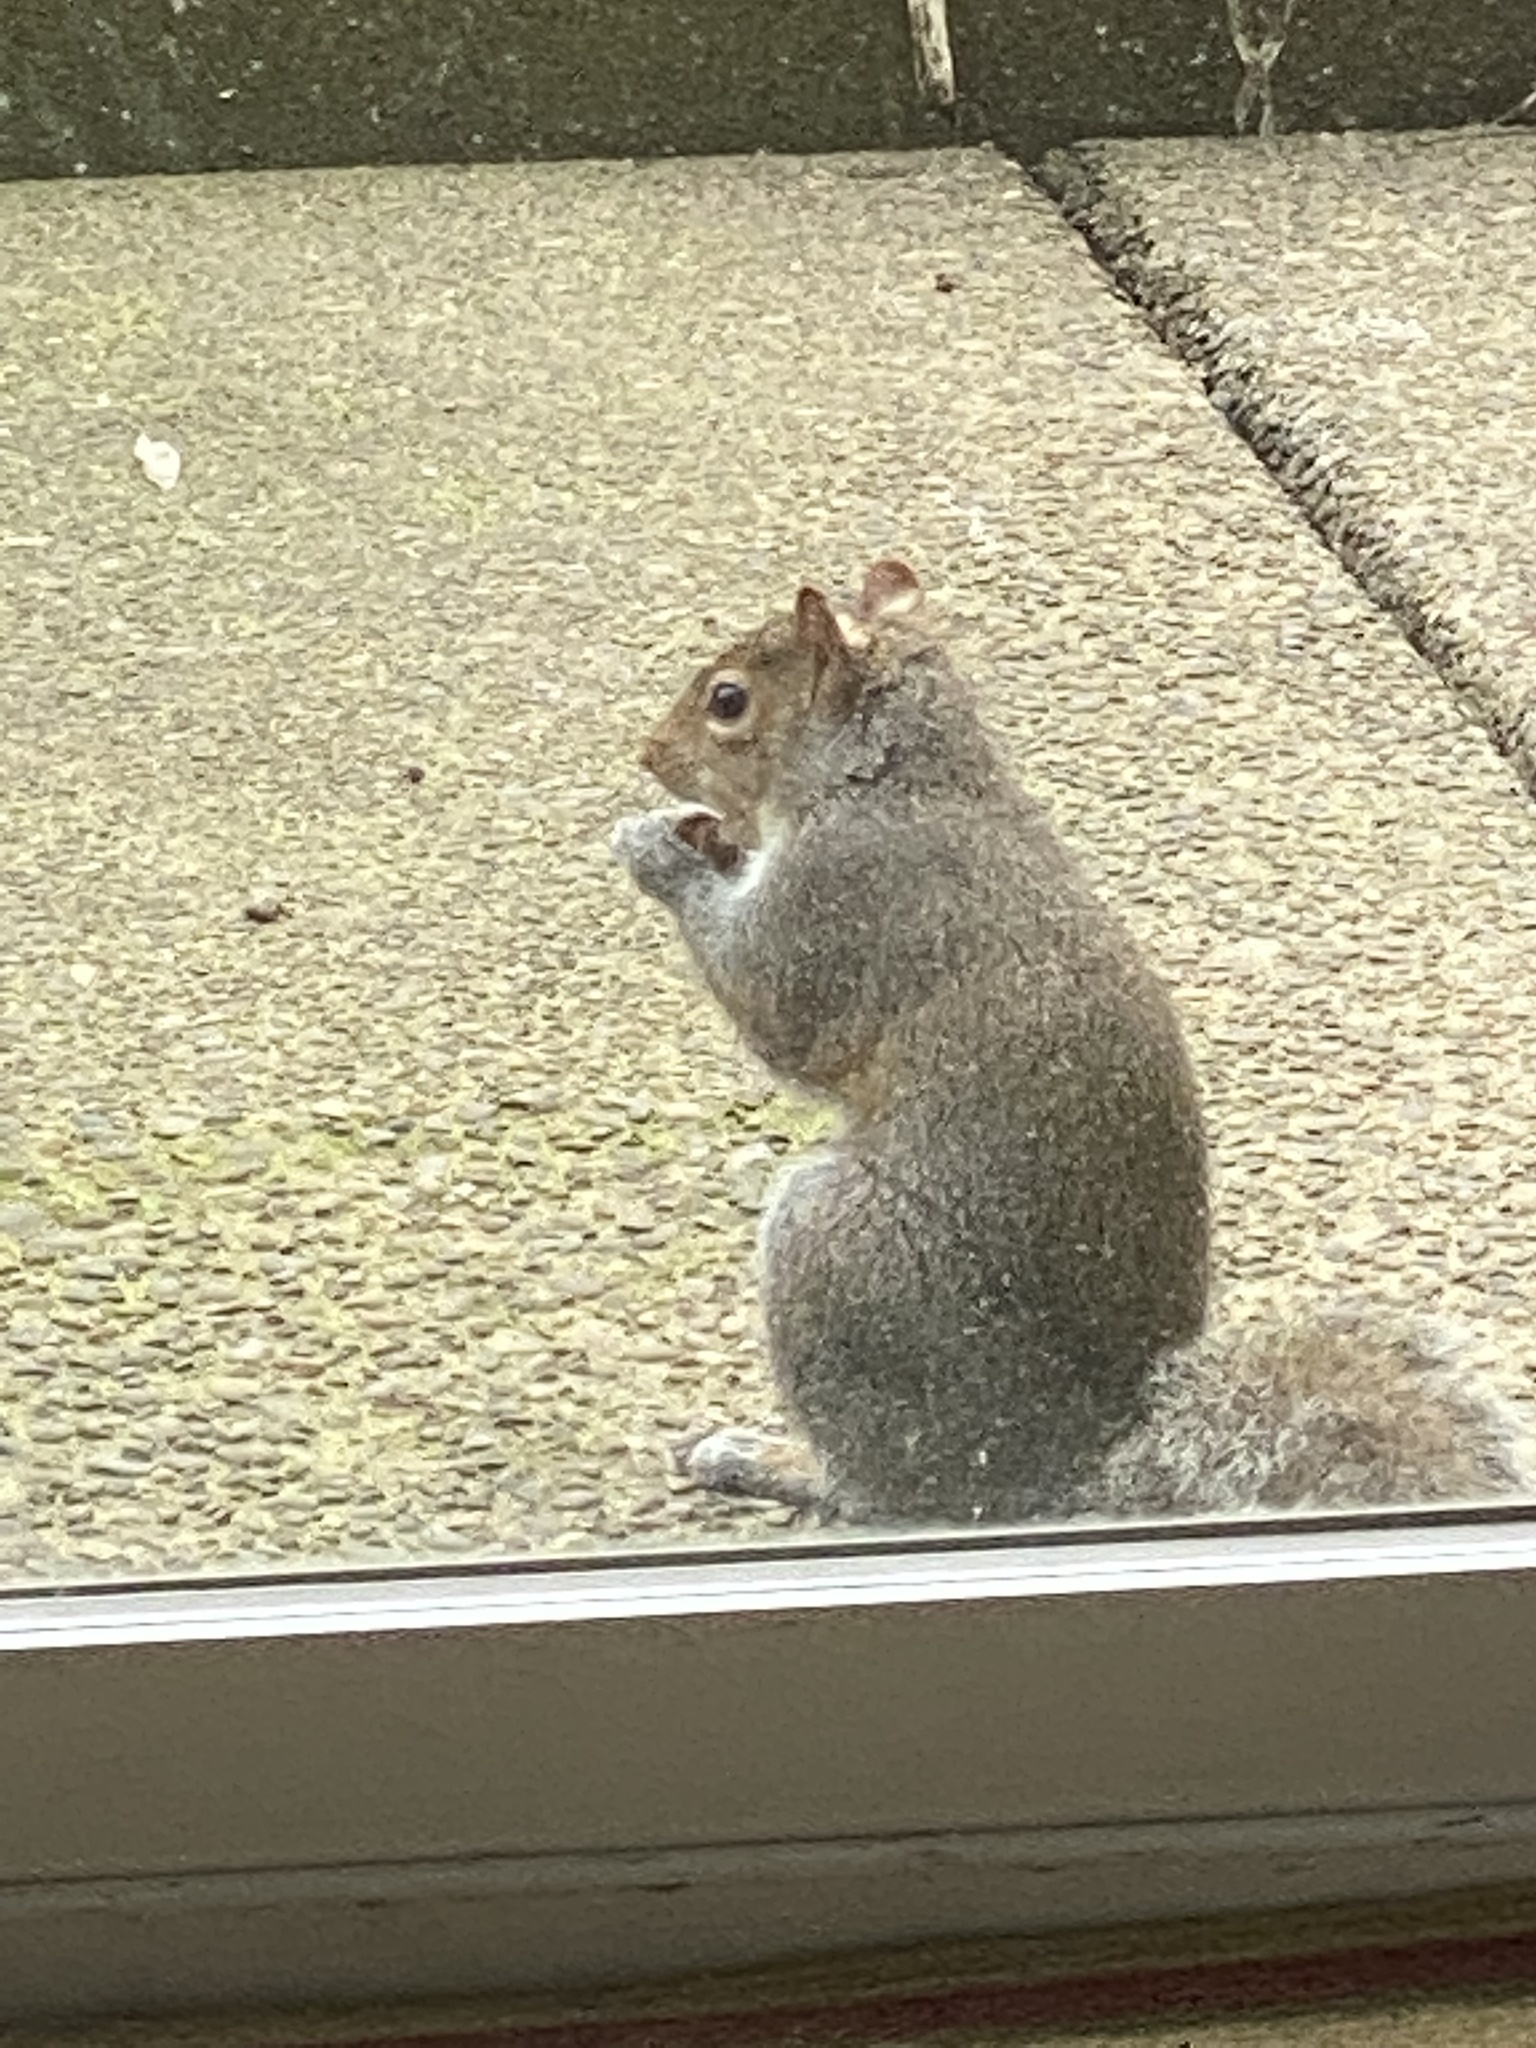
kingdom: Animalia
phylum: Chordata
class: Mammalia
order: Rodentia
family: Sciuridae
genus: Sciurus
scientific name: Sciurus carolinensis
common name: Eastern gray squirrel
